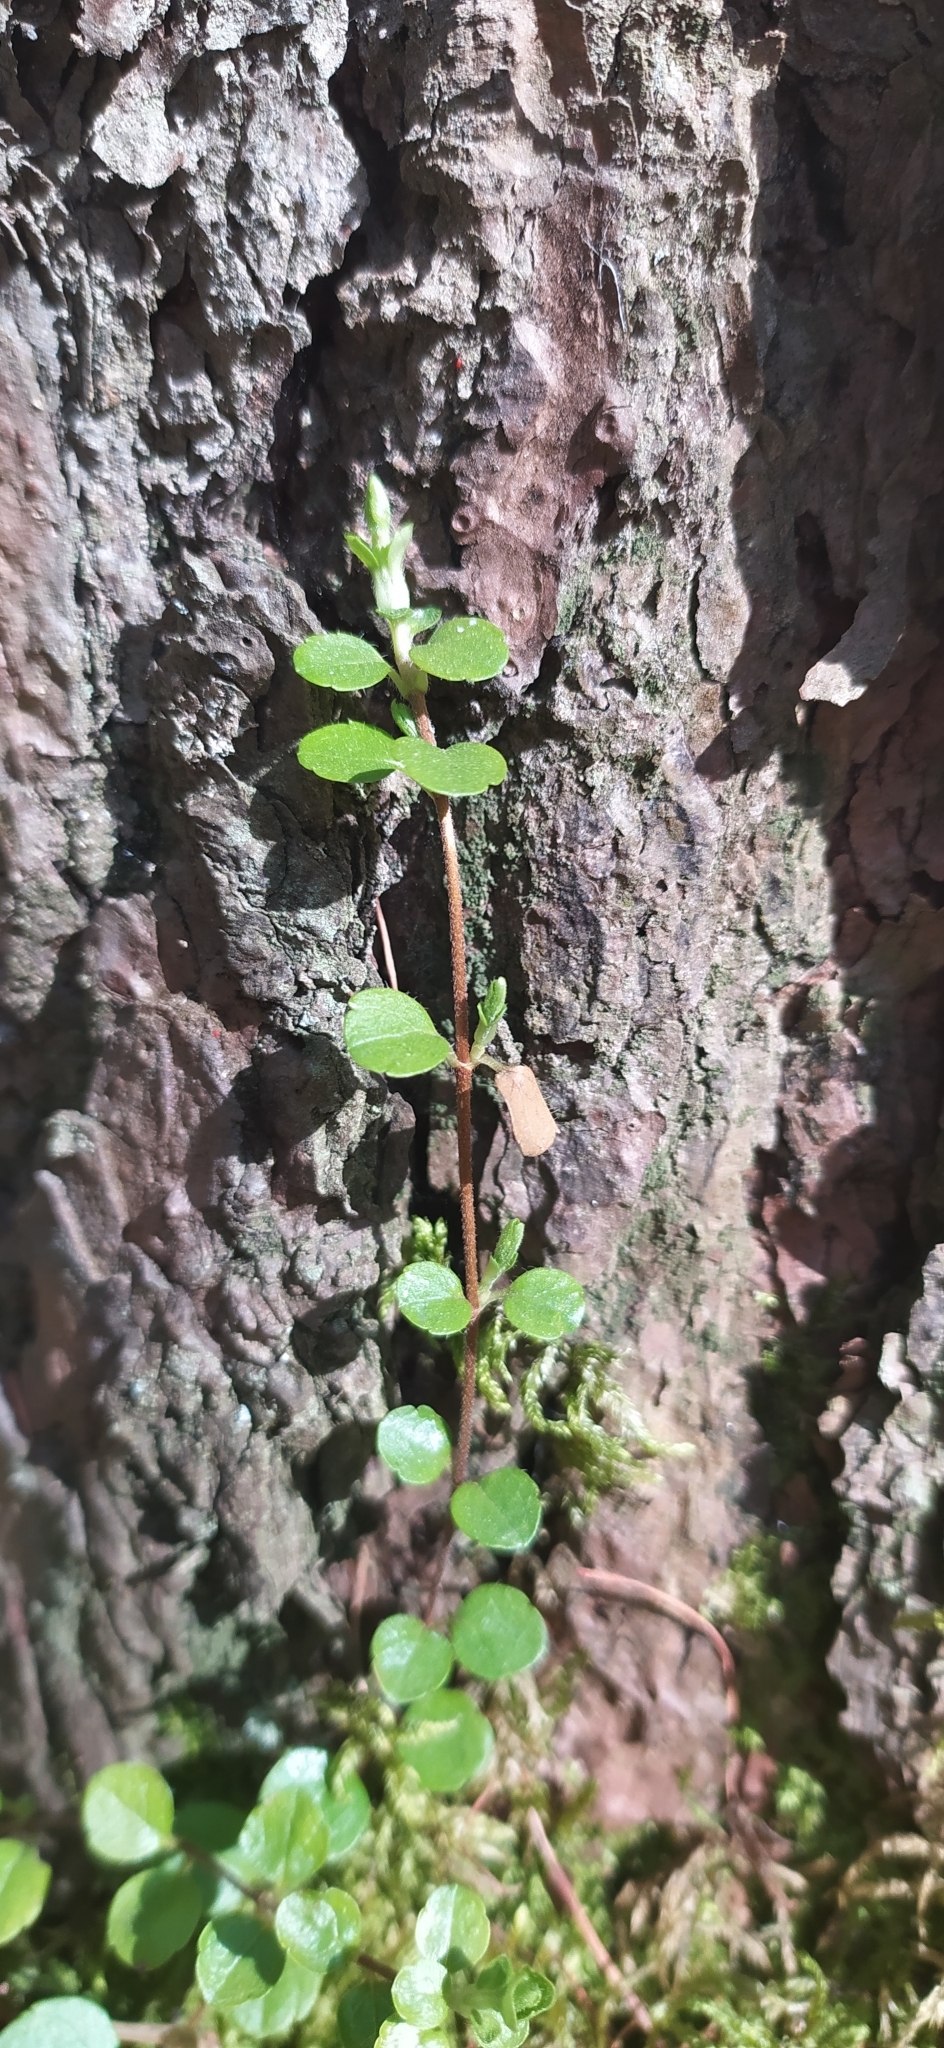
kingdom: Plantae
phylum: Tracheophyta
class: Magnoliopsida
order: Dipsacales
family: Caprifoliaceae
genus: Linnaea
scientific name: Linnaea borealis
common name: Twinflower
